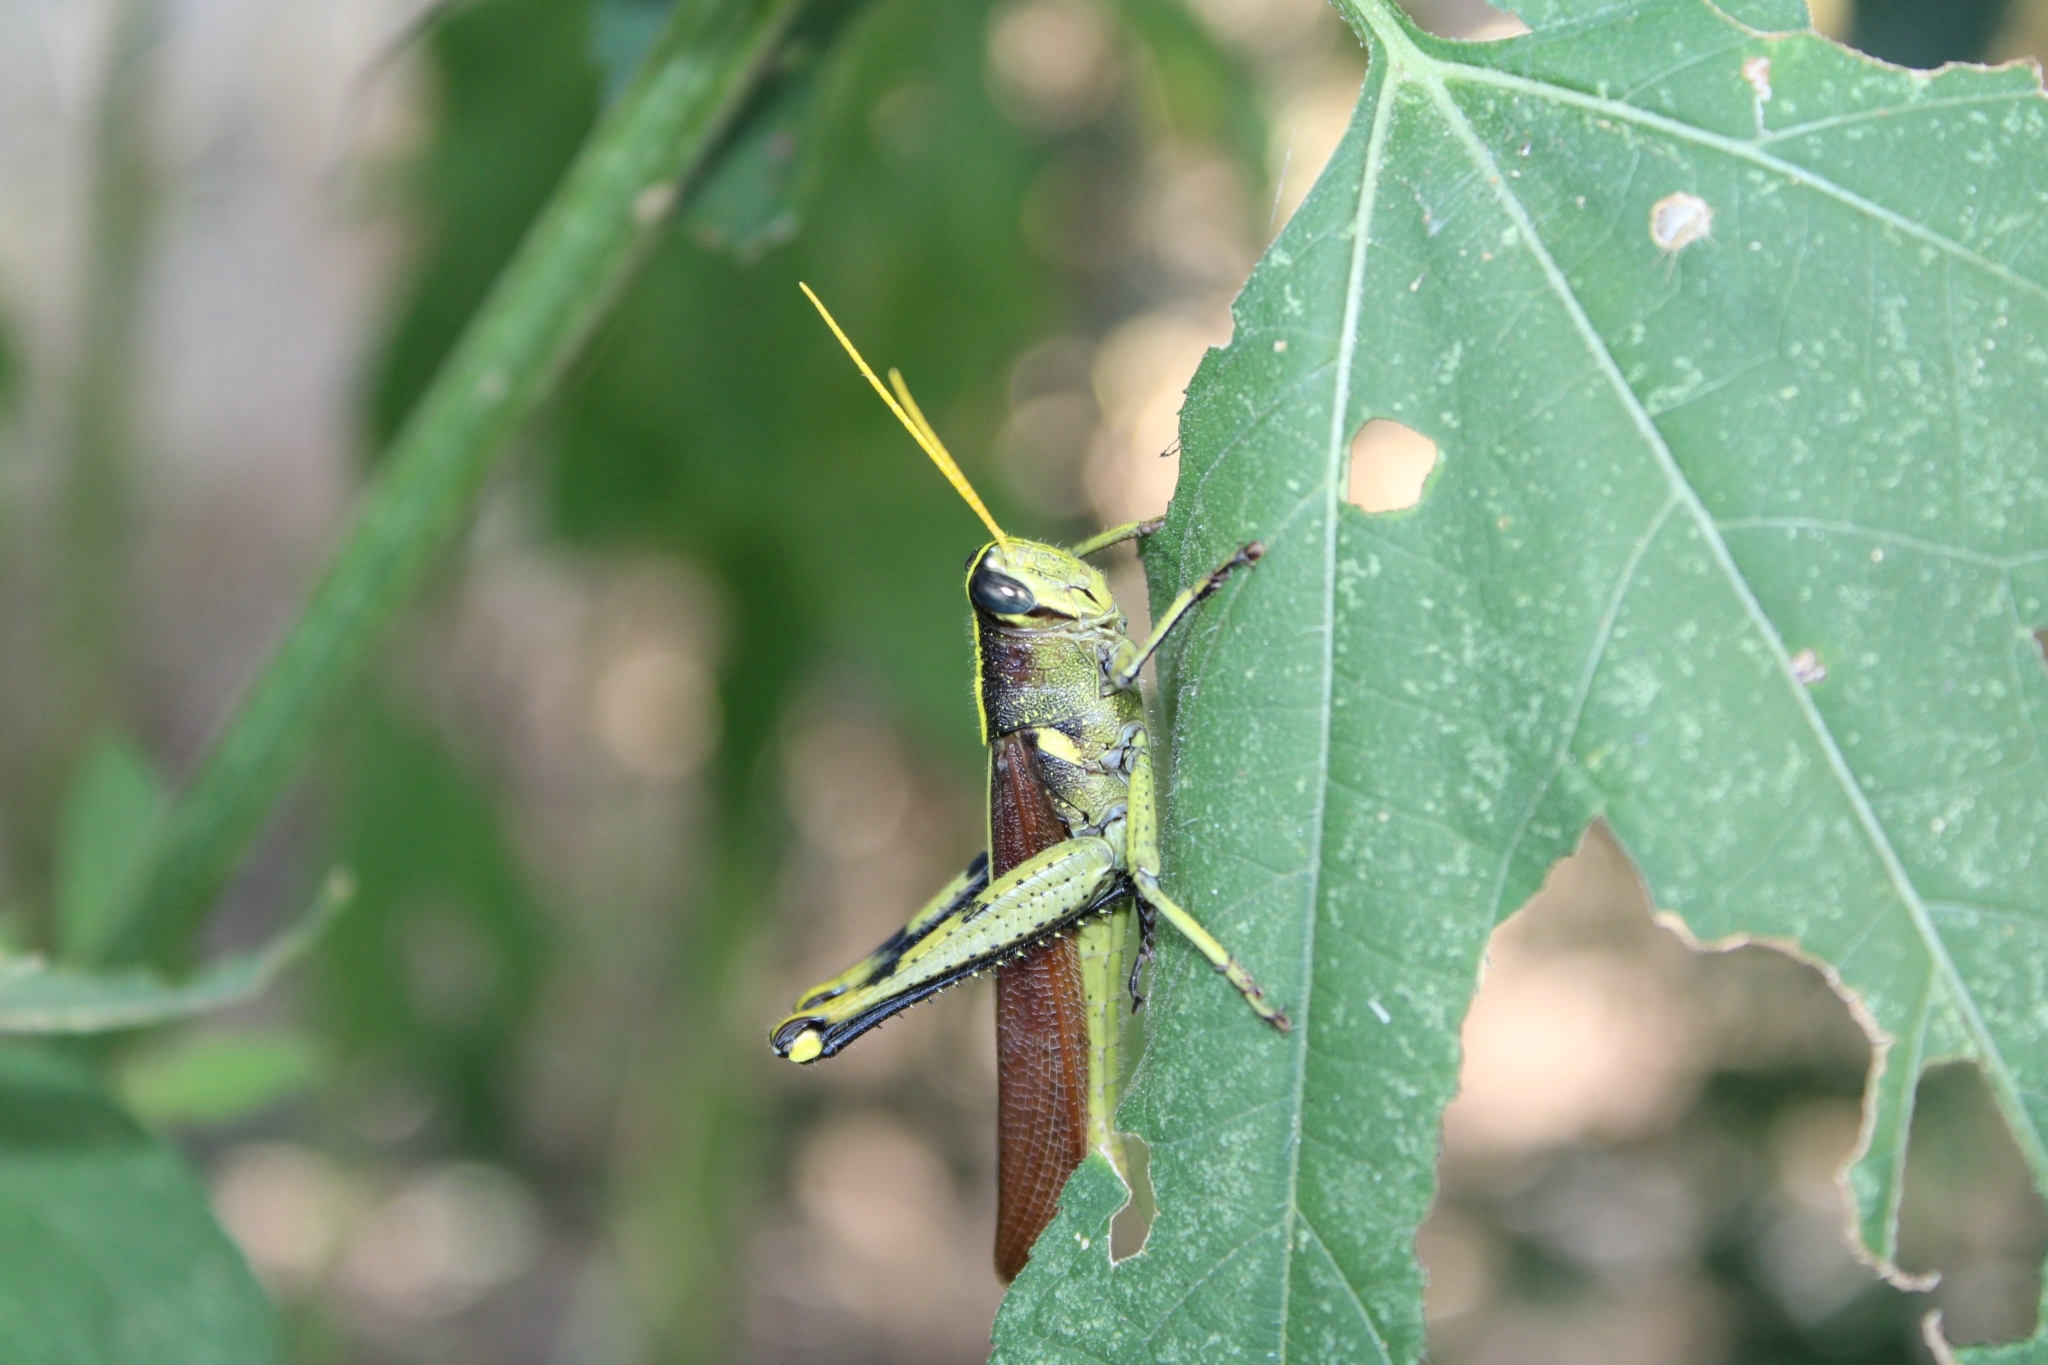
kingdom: Animalia
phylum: Arthropoda
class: Insecta
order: Orthoptera
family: Acrididae
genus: Schistocerca
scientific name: Schistocerca obscura
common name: Obscure bird grasshopper
